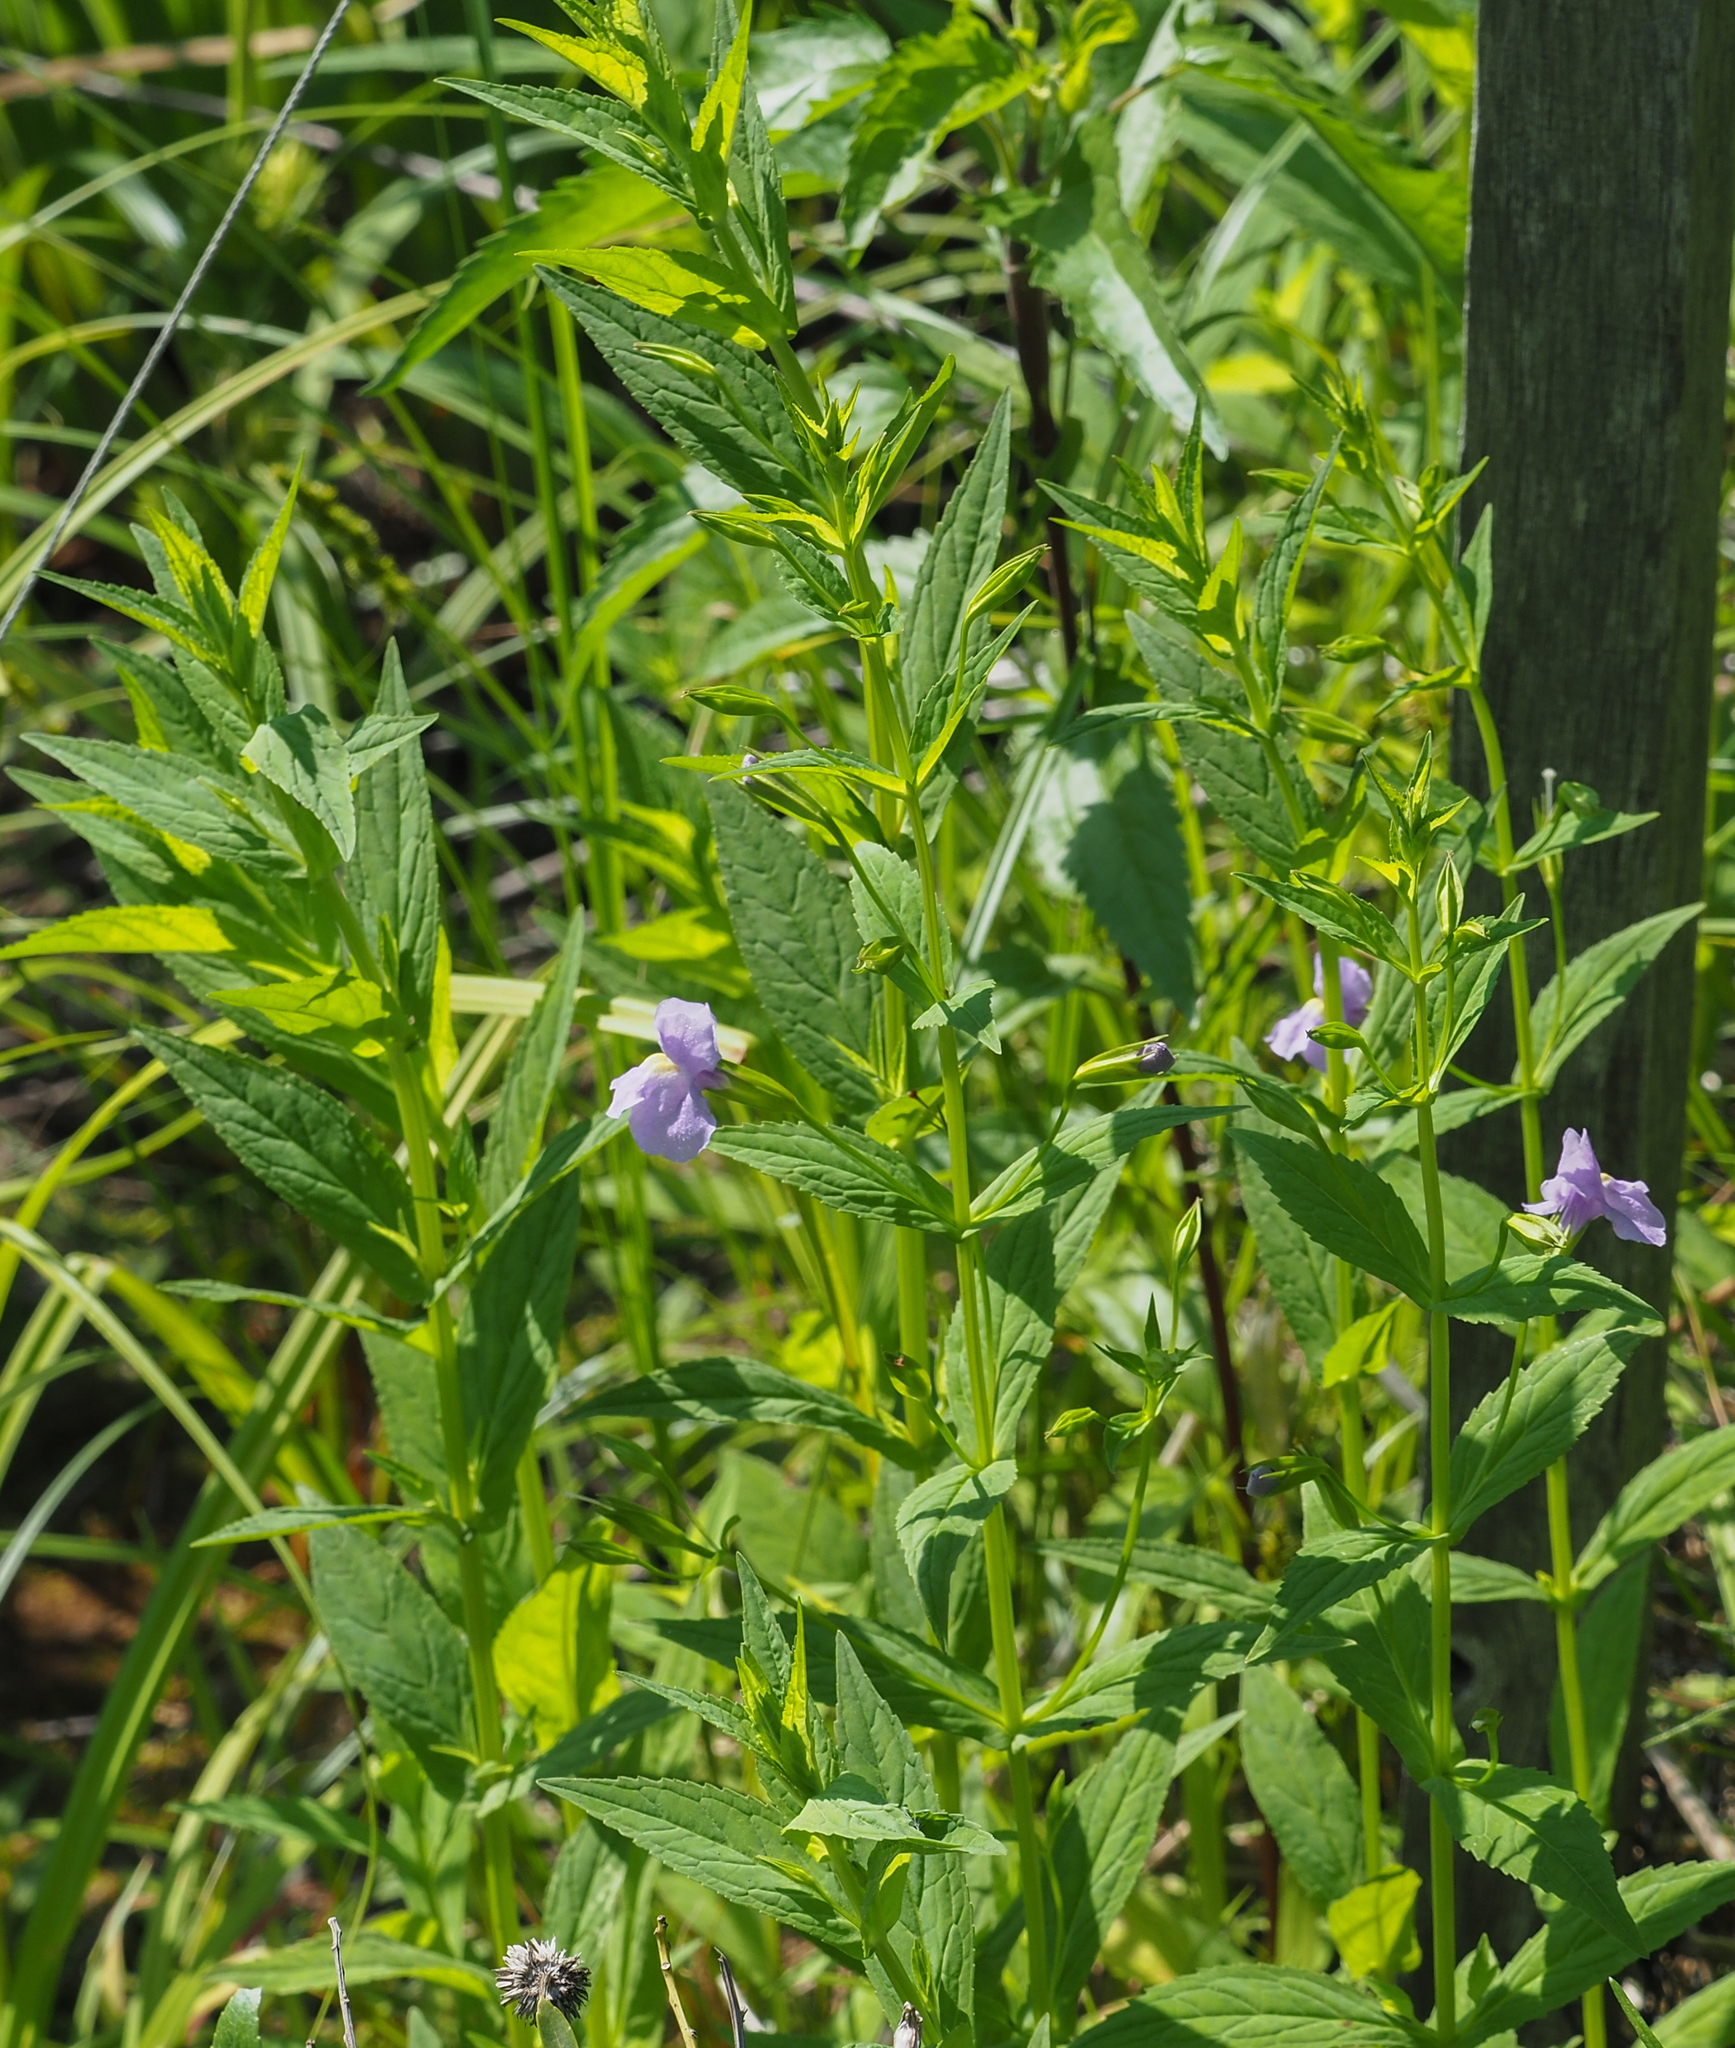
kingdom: Plantae
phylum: Tracheophyta
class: Magnoliopsida
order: Lamiales
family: Phrymaceae
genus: Mimulus
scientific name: Mimulus ringens
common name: Allegheny monkeyflower
